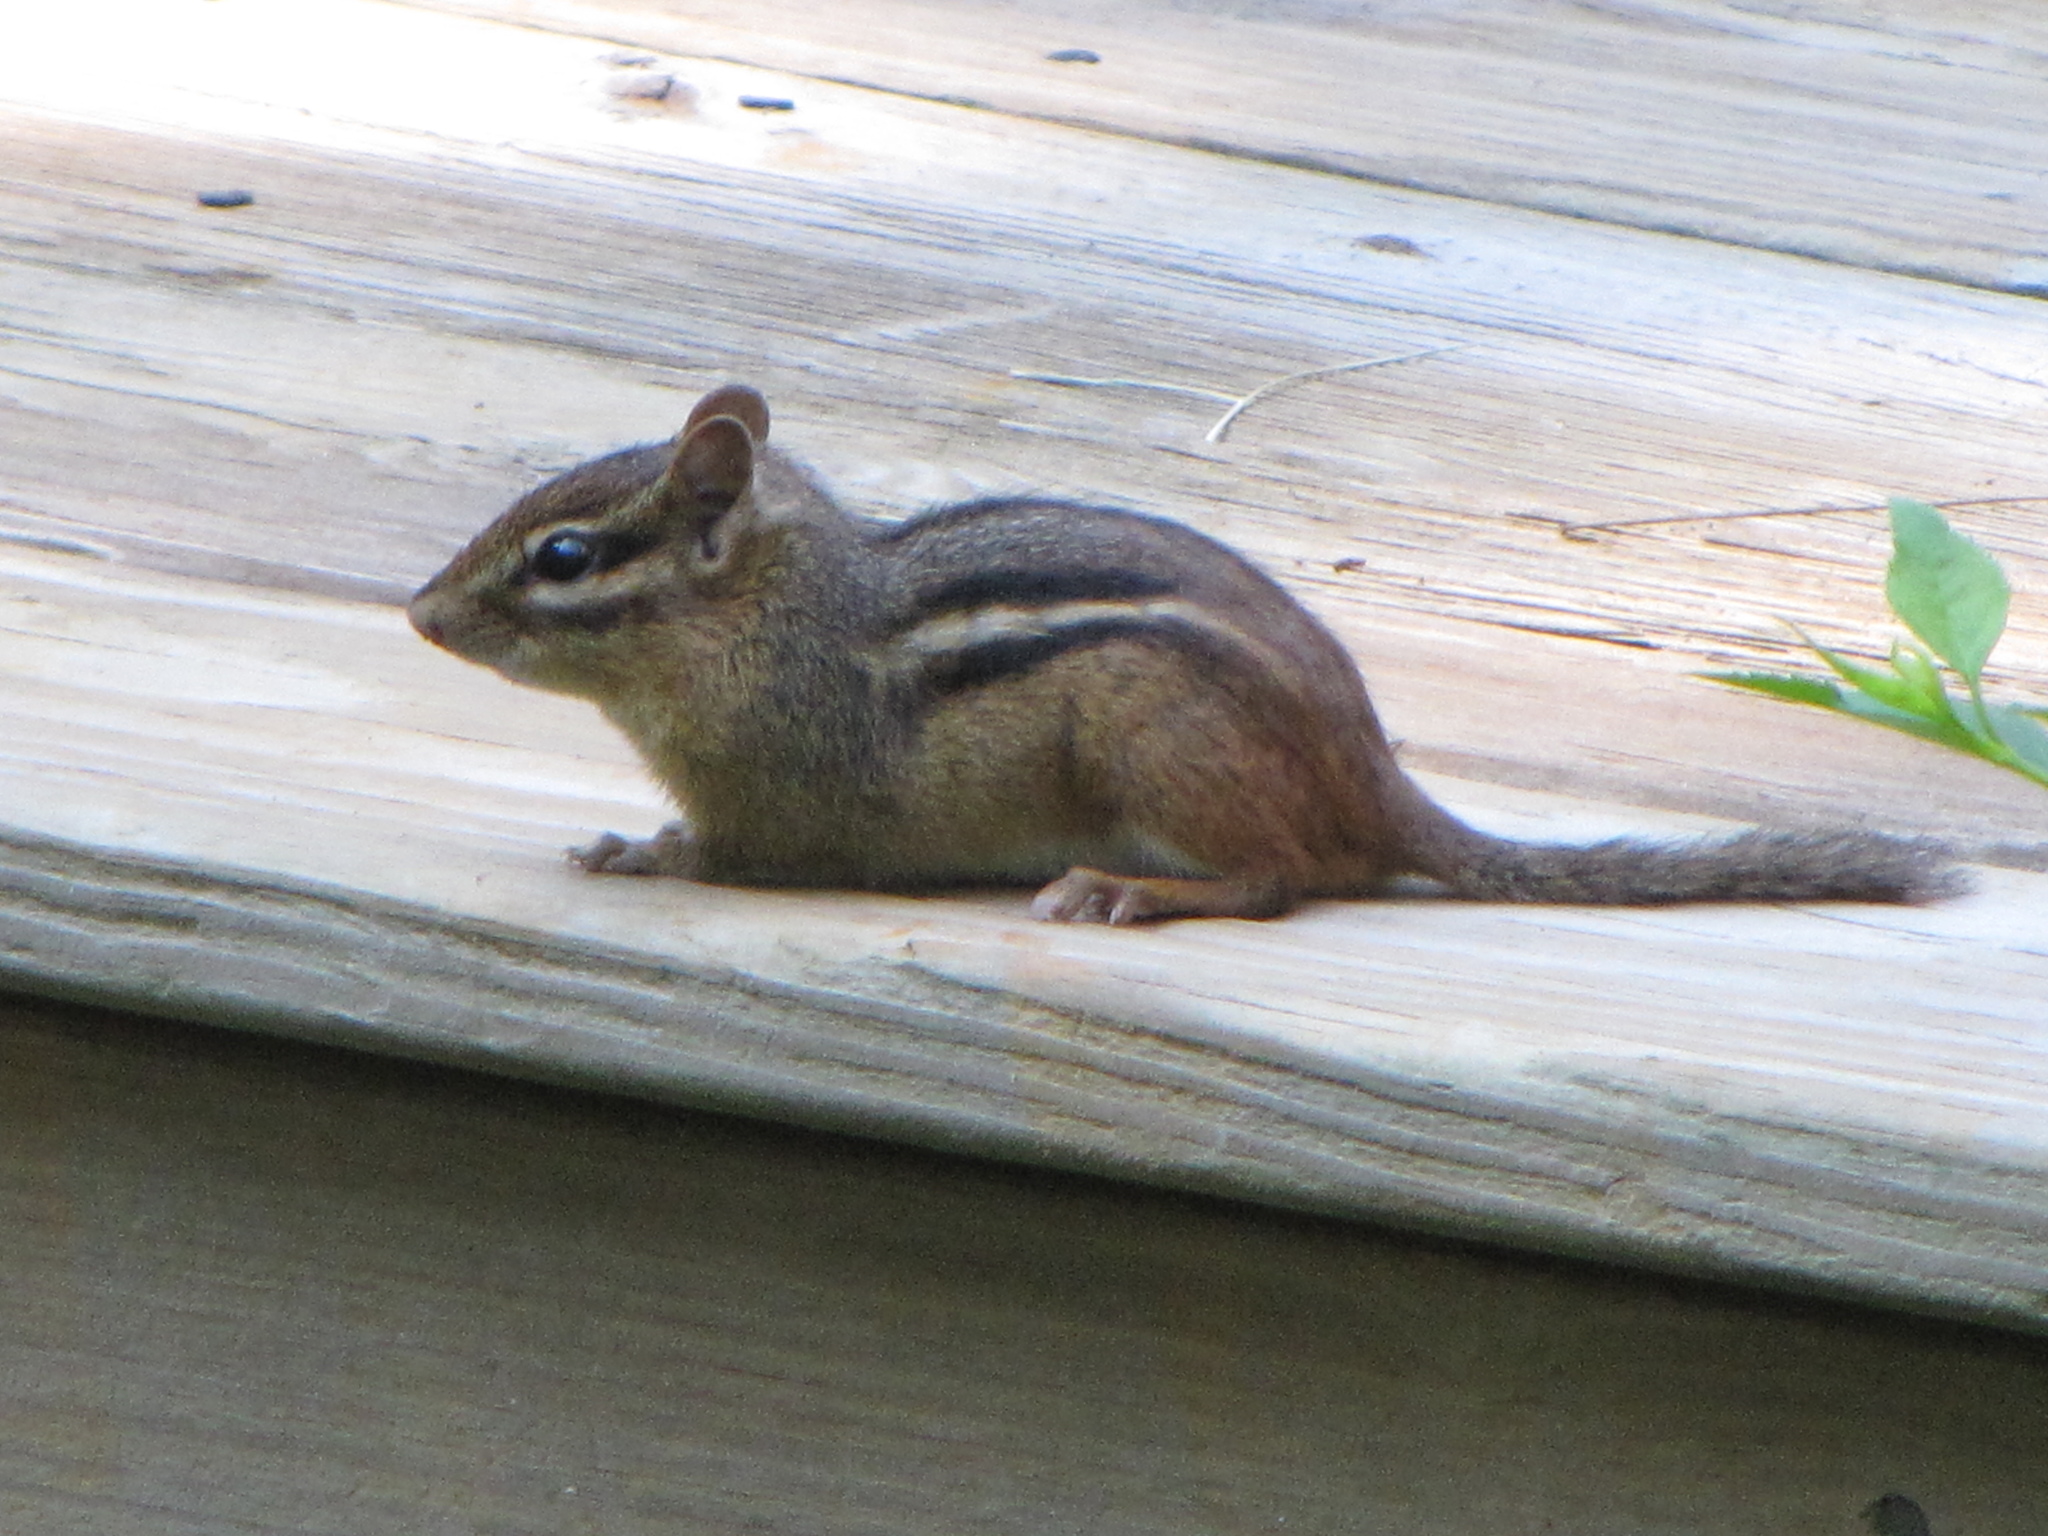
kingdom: Animalia
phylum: Chordata
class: Mammalia
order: Rodentia
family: Sciuridae
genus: Tamias
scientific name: Tamias striatus
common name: Eastern chipmunk
